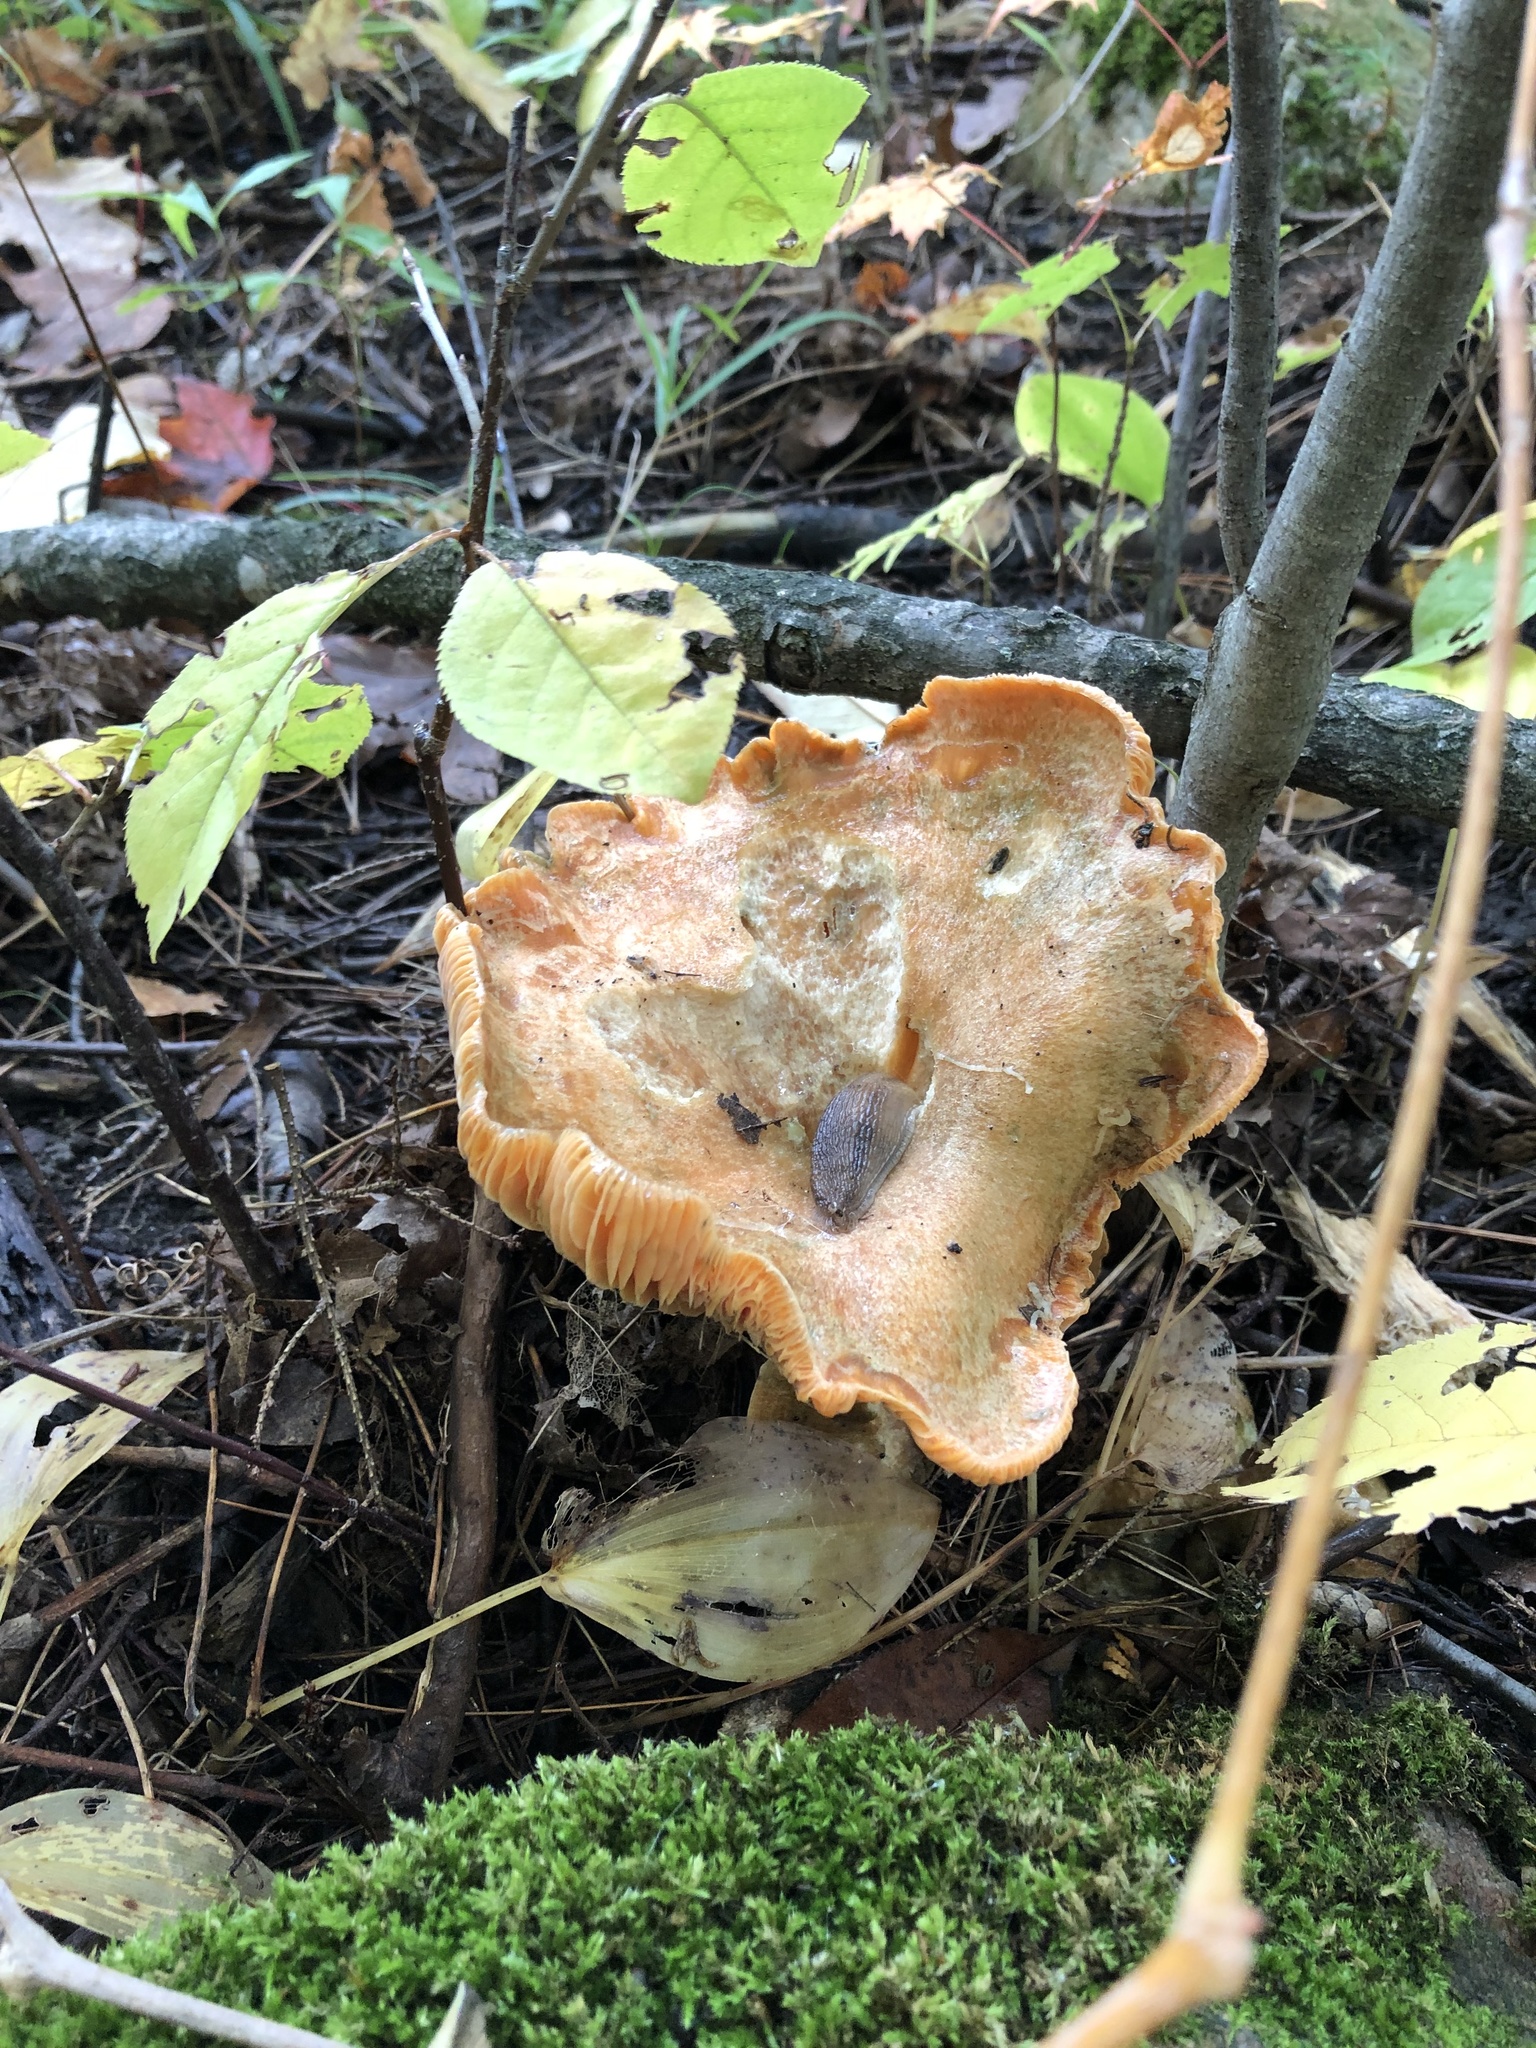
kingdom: Fungi
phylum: Basidiomycota
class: Agaricomycetes
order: Russulales
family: Russulaceae
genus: Lactarius
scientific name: Lactarius deterrimus
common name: False saffron milkcap
